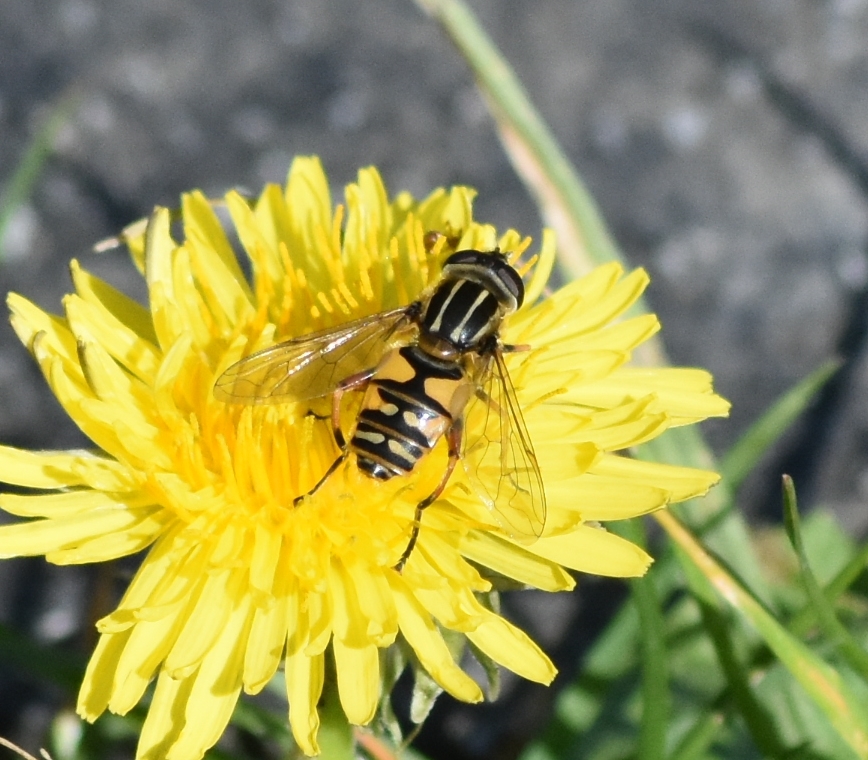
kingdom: Animalia
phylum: Arthropoda
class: Insecta
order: Diptera
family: Syrphidae
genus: Helophilus
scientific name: Helophilus pendulus
